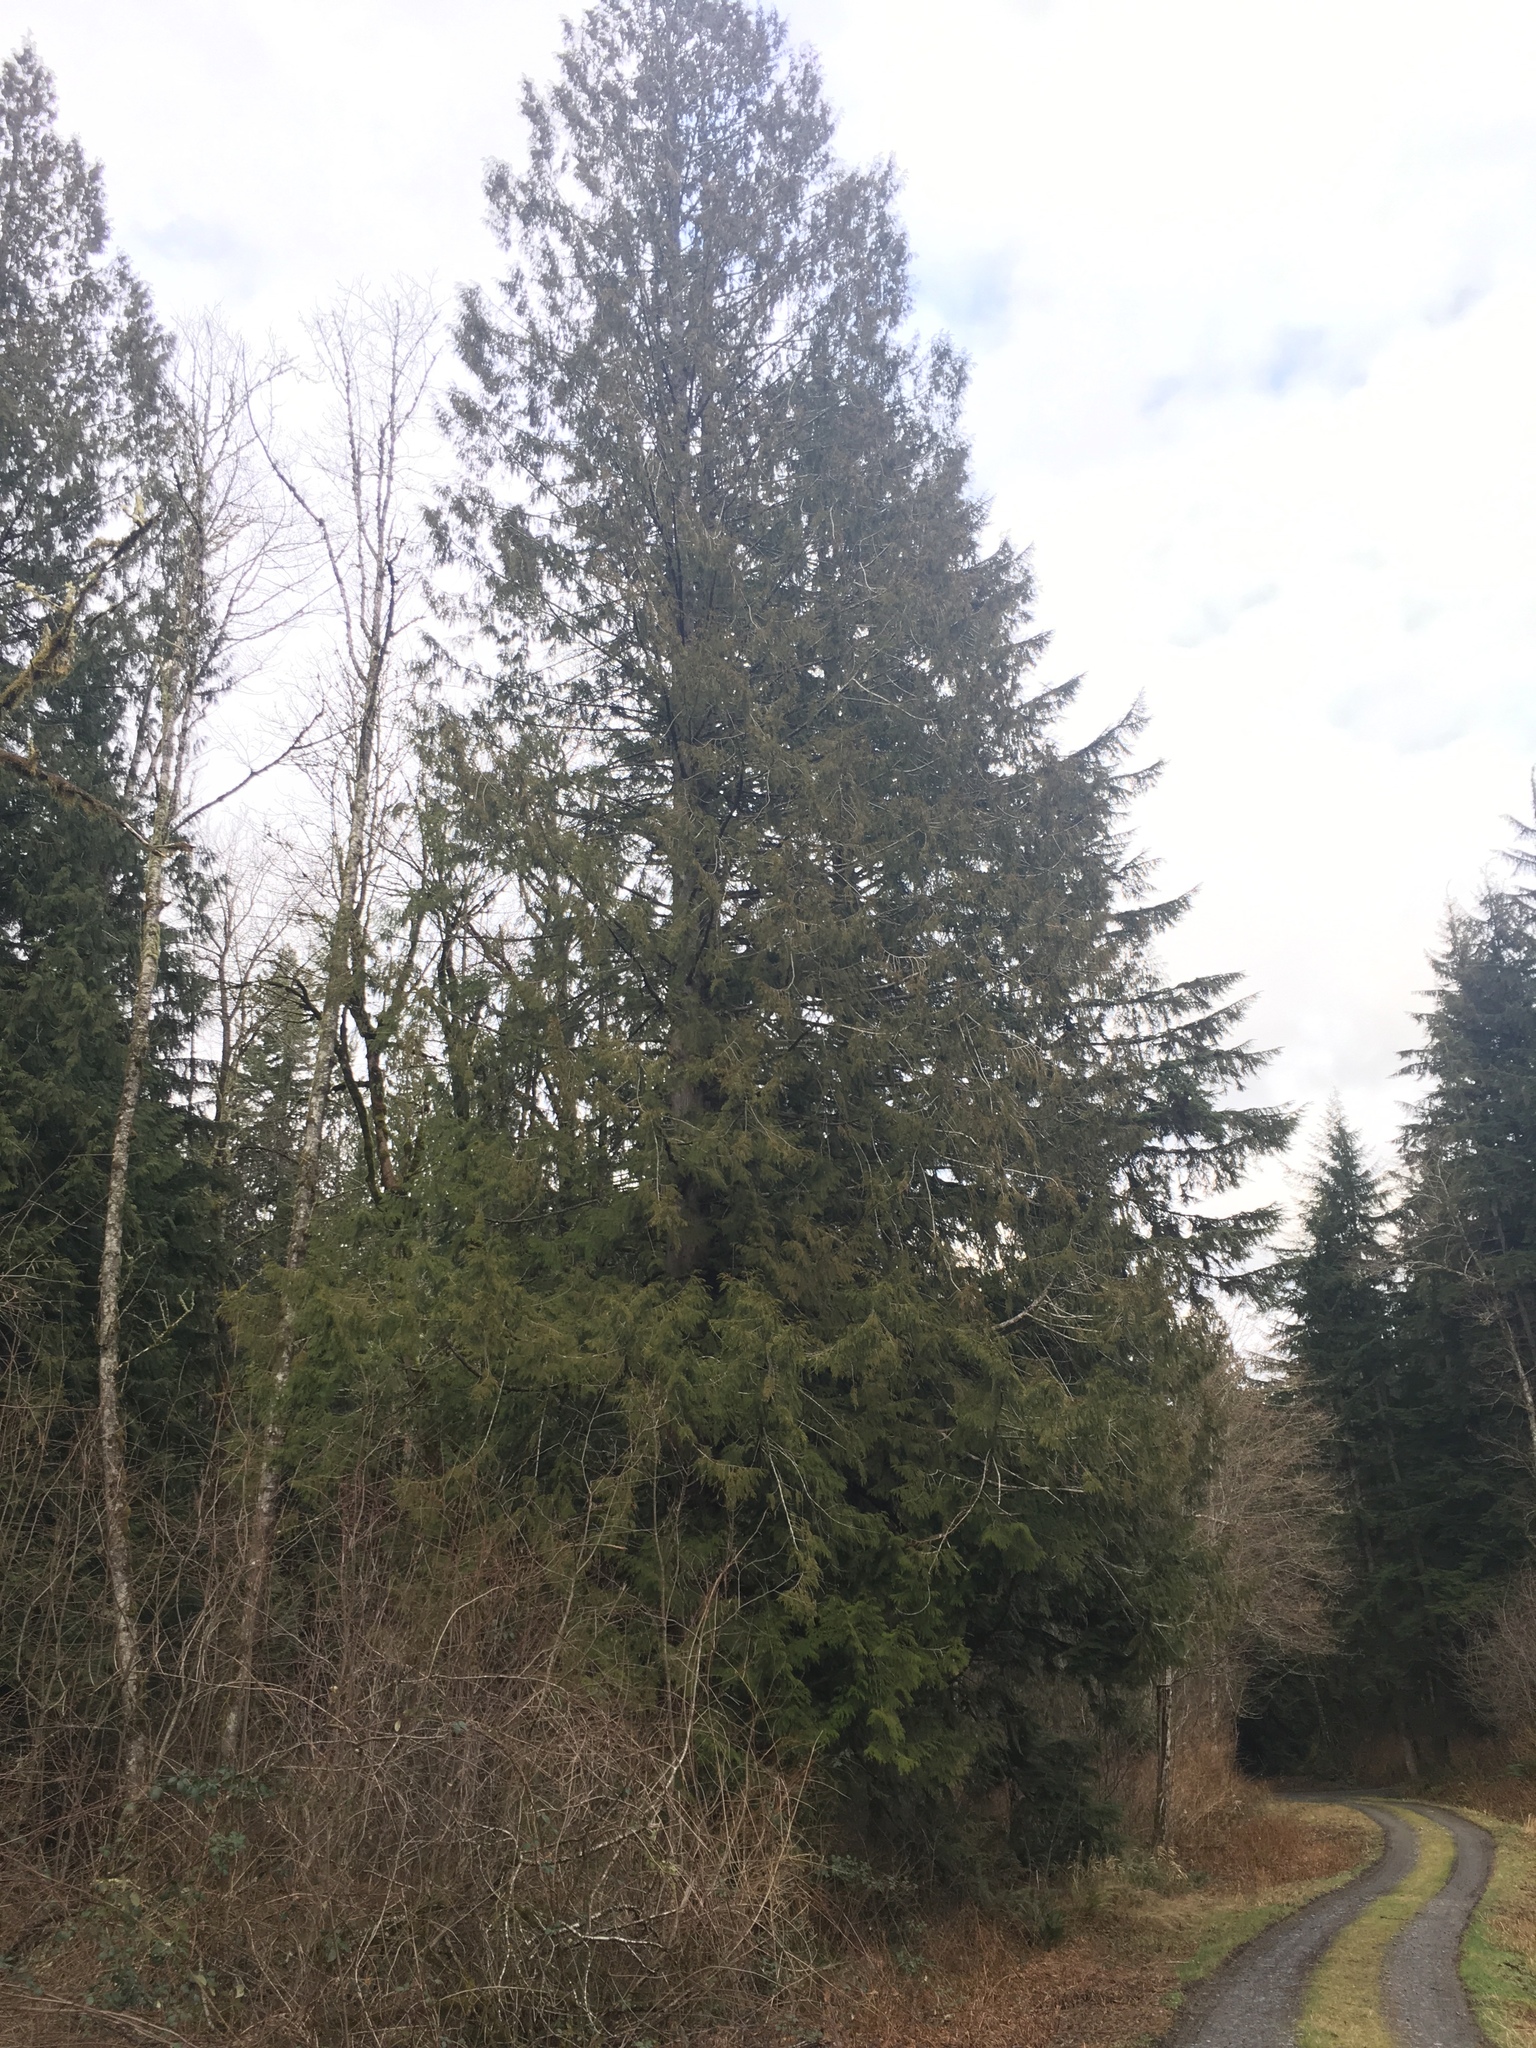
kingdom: Plantae
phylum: Tracheophyta
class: Pinopsida
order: Pinales
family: Cupressaceae
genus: Thuja
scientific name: Thuja plicata
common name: Western red-cedar
